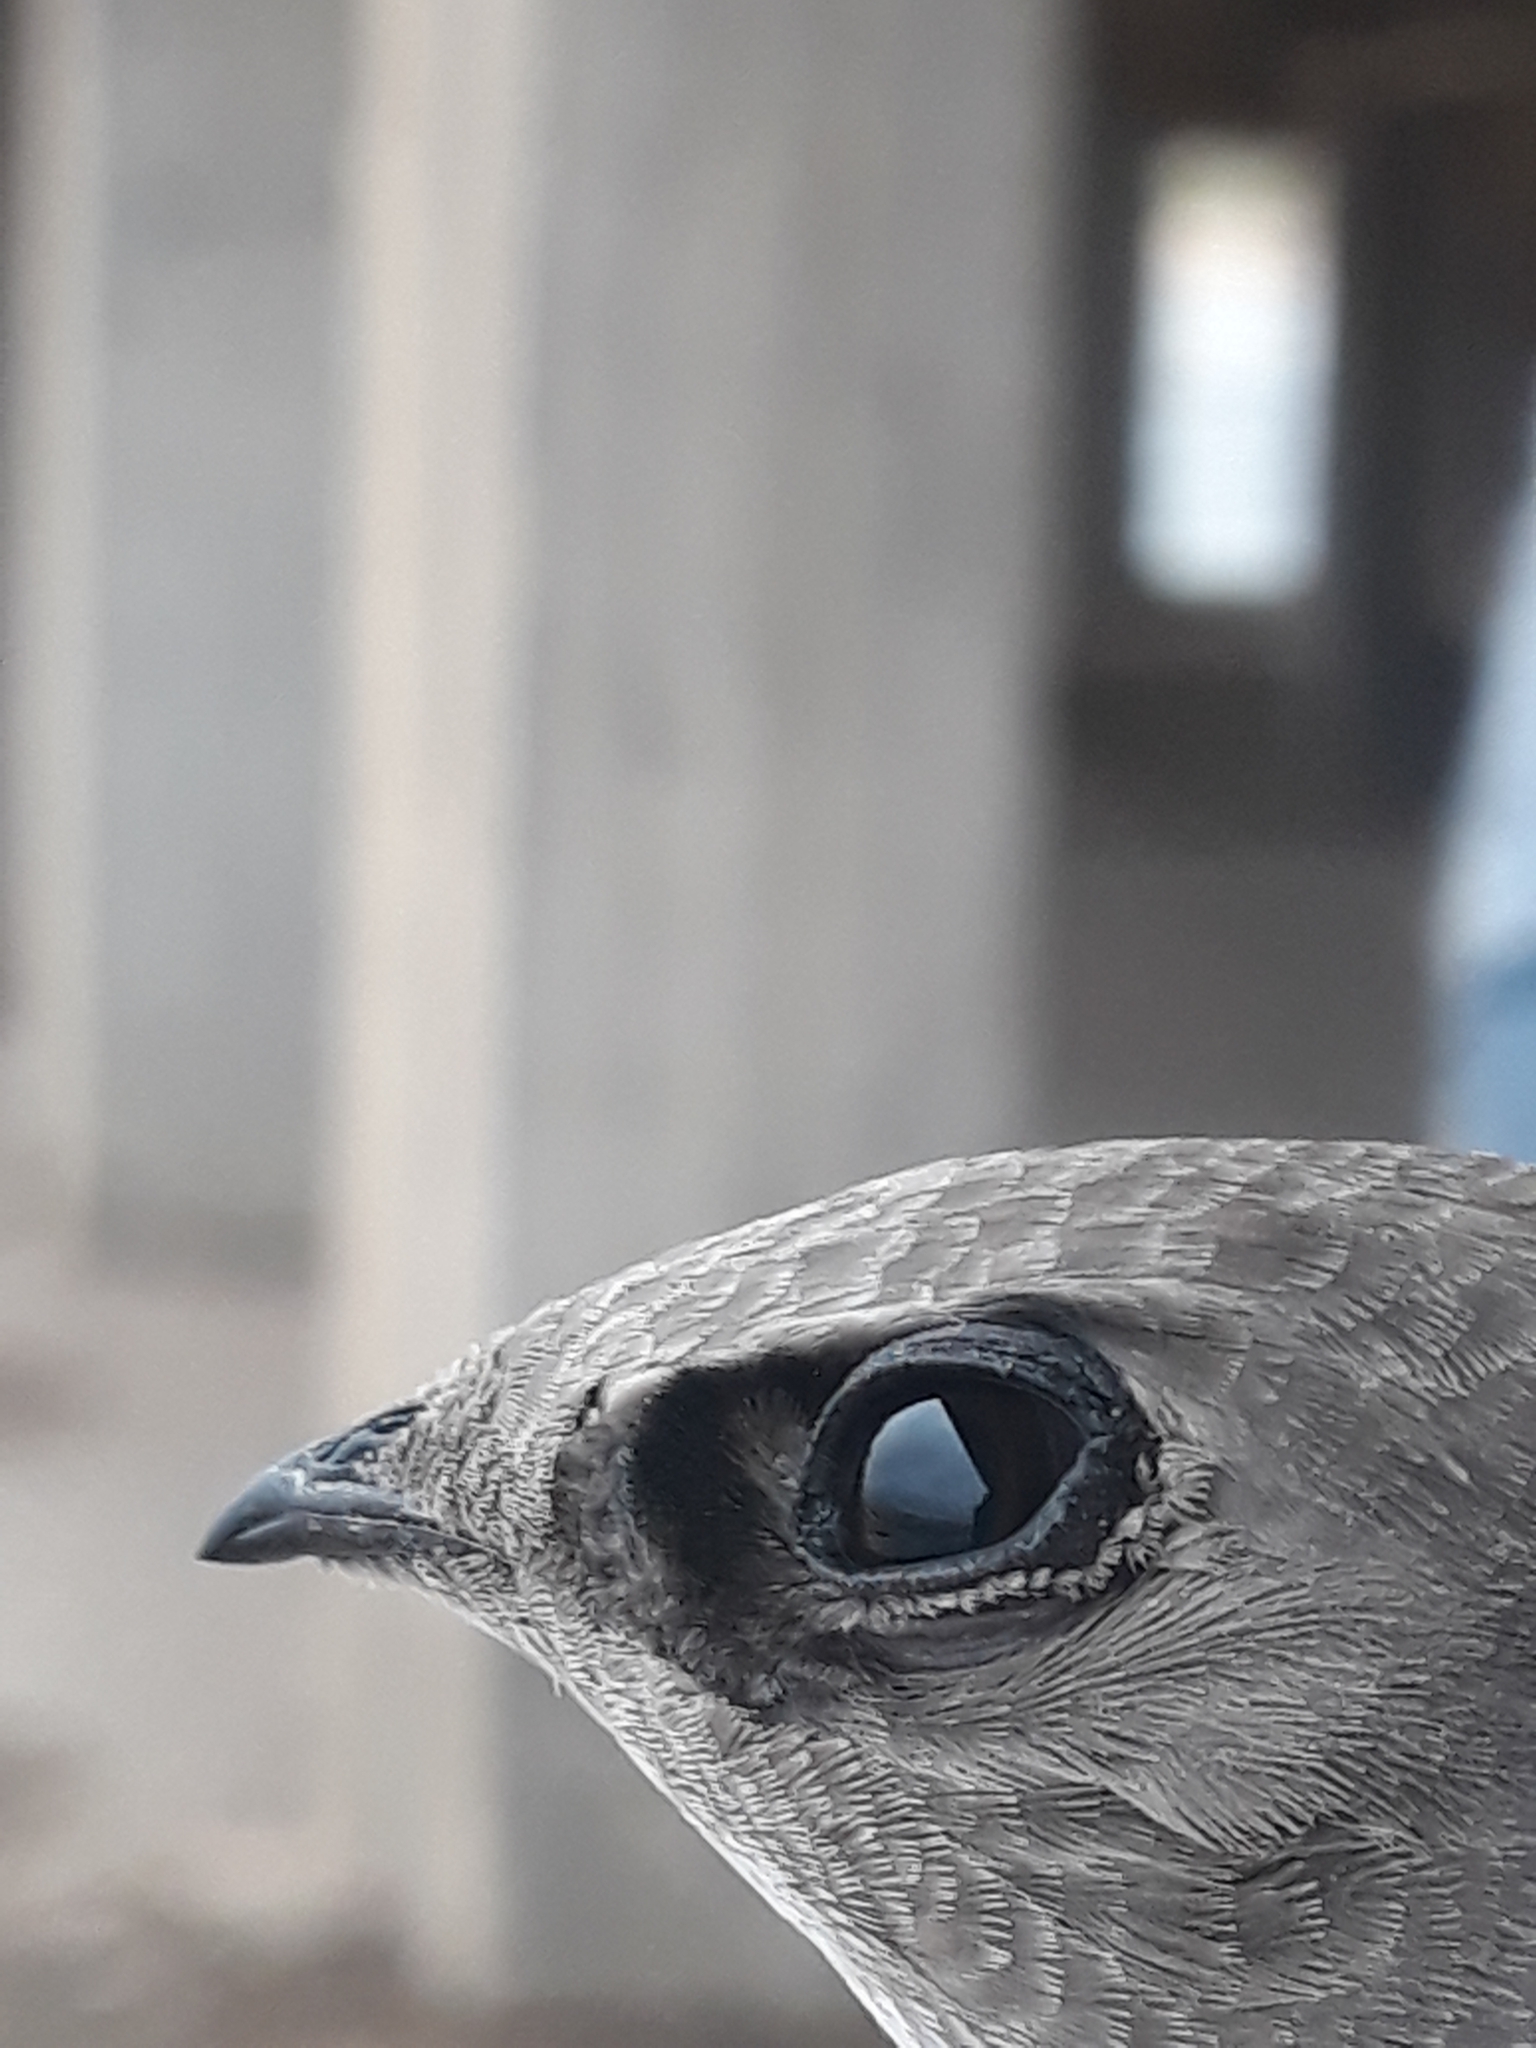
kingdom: Animalia
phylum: Chordata
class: Aves
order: Apodiformes
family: Apodidae
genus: Apus
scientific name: Apus pallidus
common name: Pallid swift
